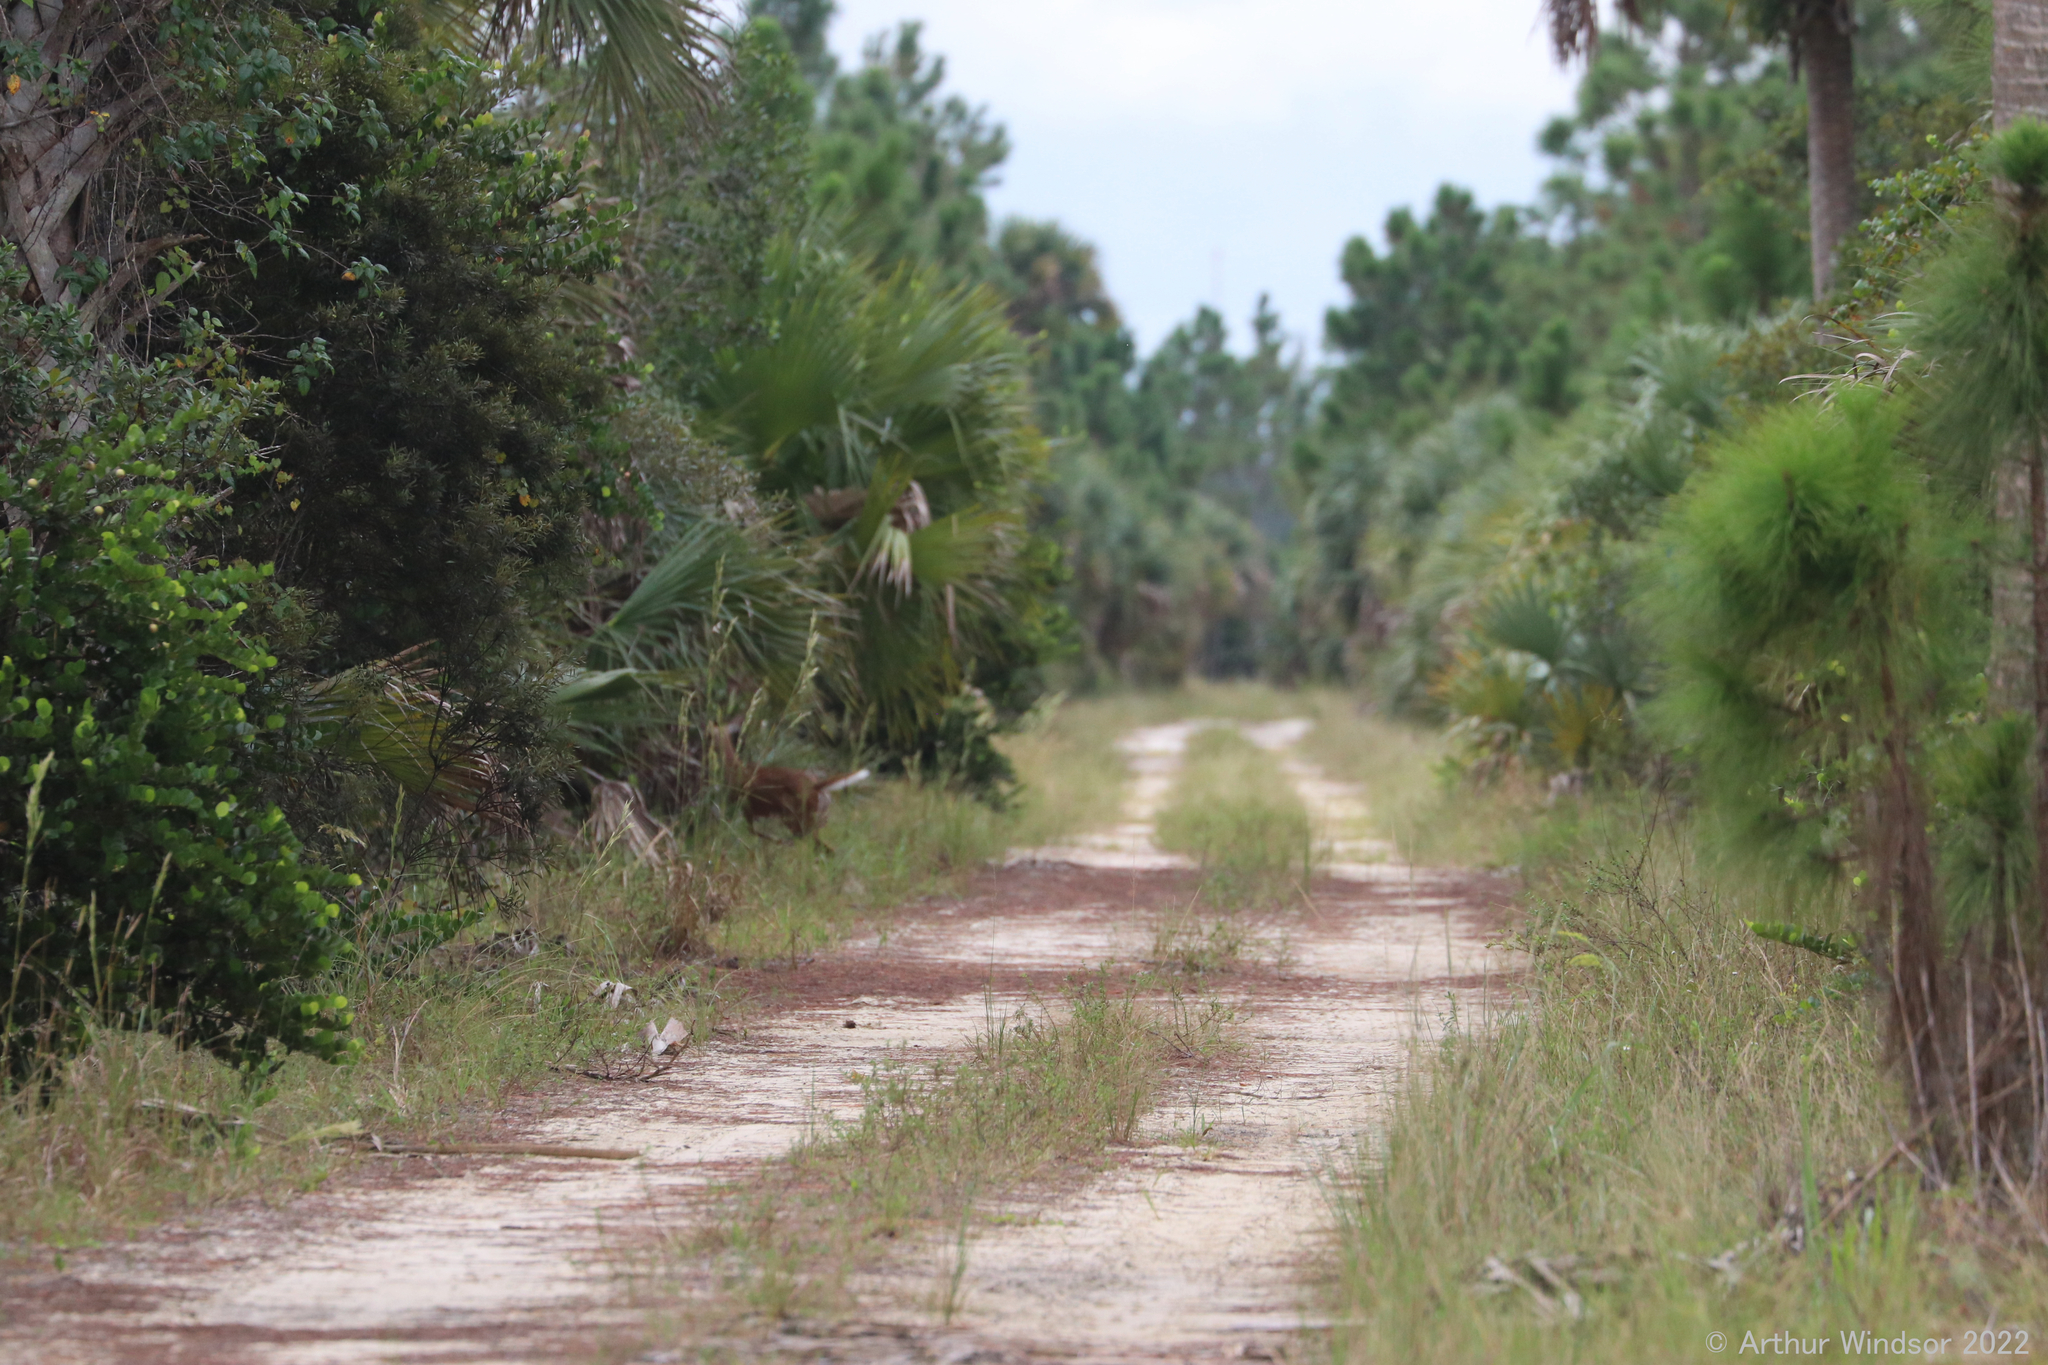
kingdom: Animalia
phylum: Chordata
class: Mammalia
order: Artiodactyla
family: Cervidae
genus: Odocoileus
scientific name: Odocoileus virginianus
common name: White-tailed deer
